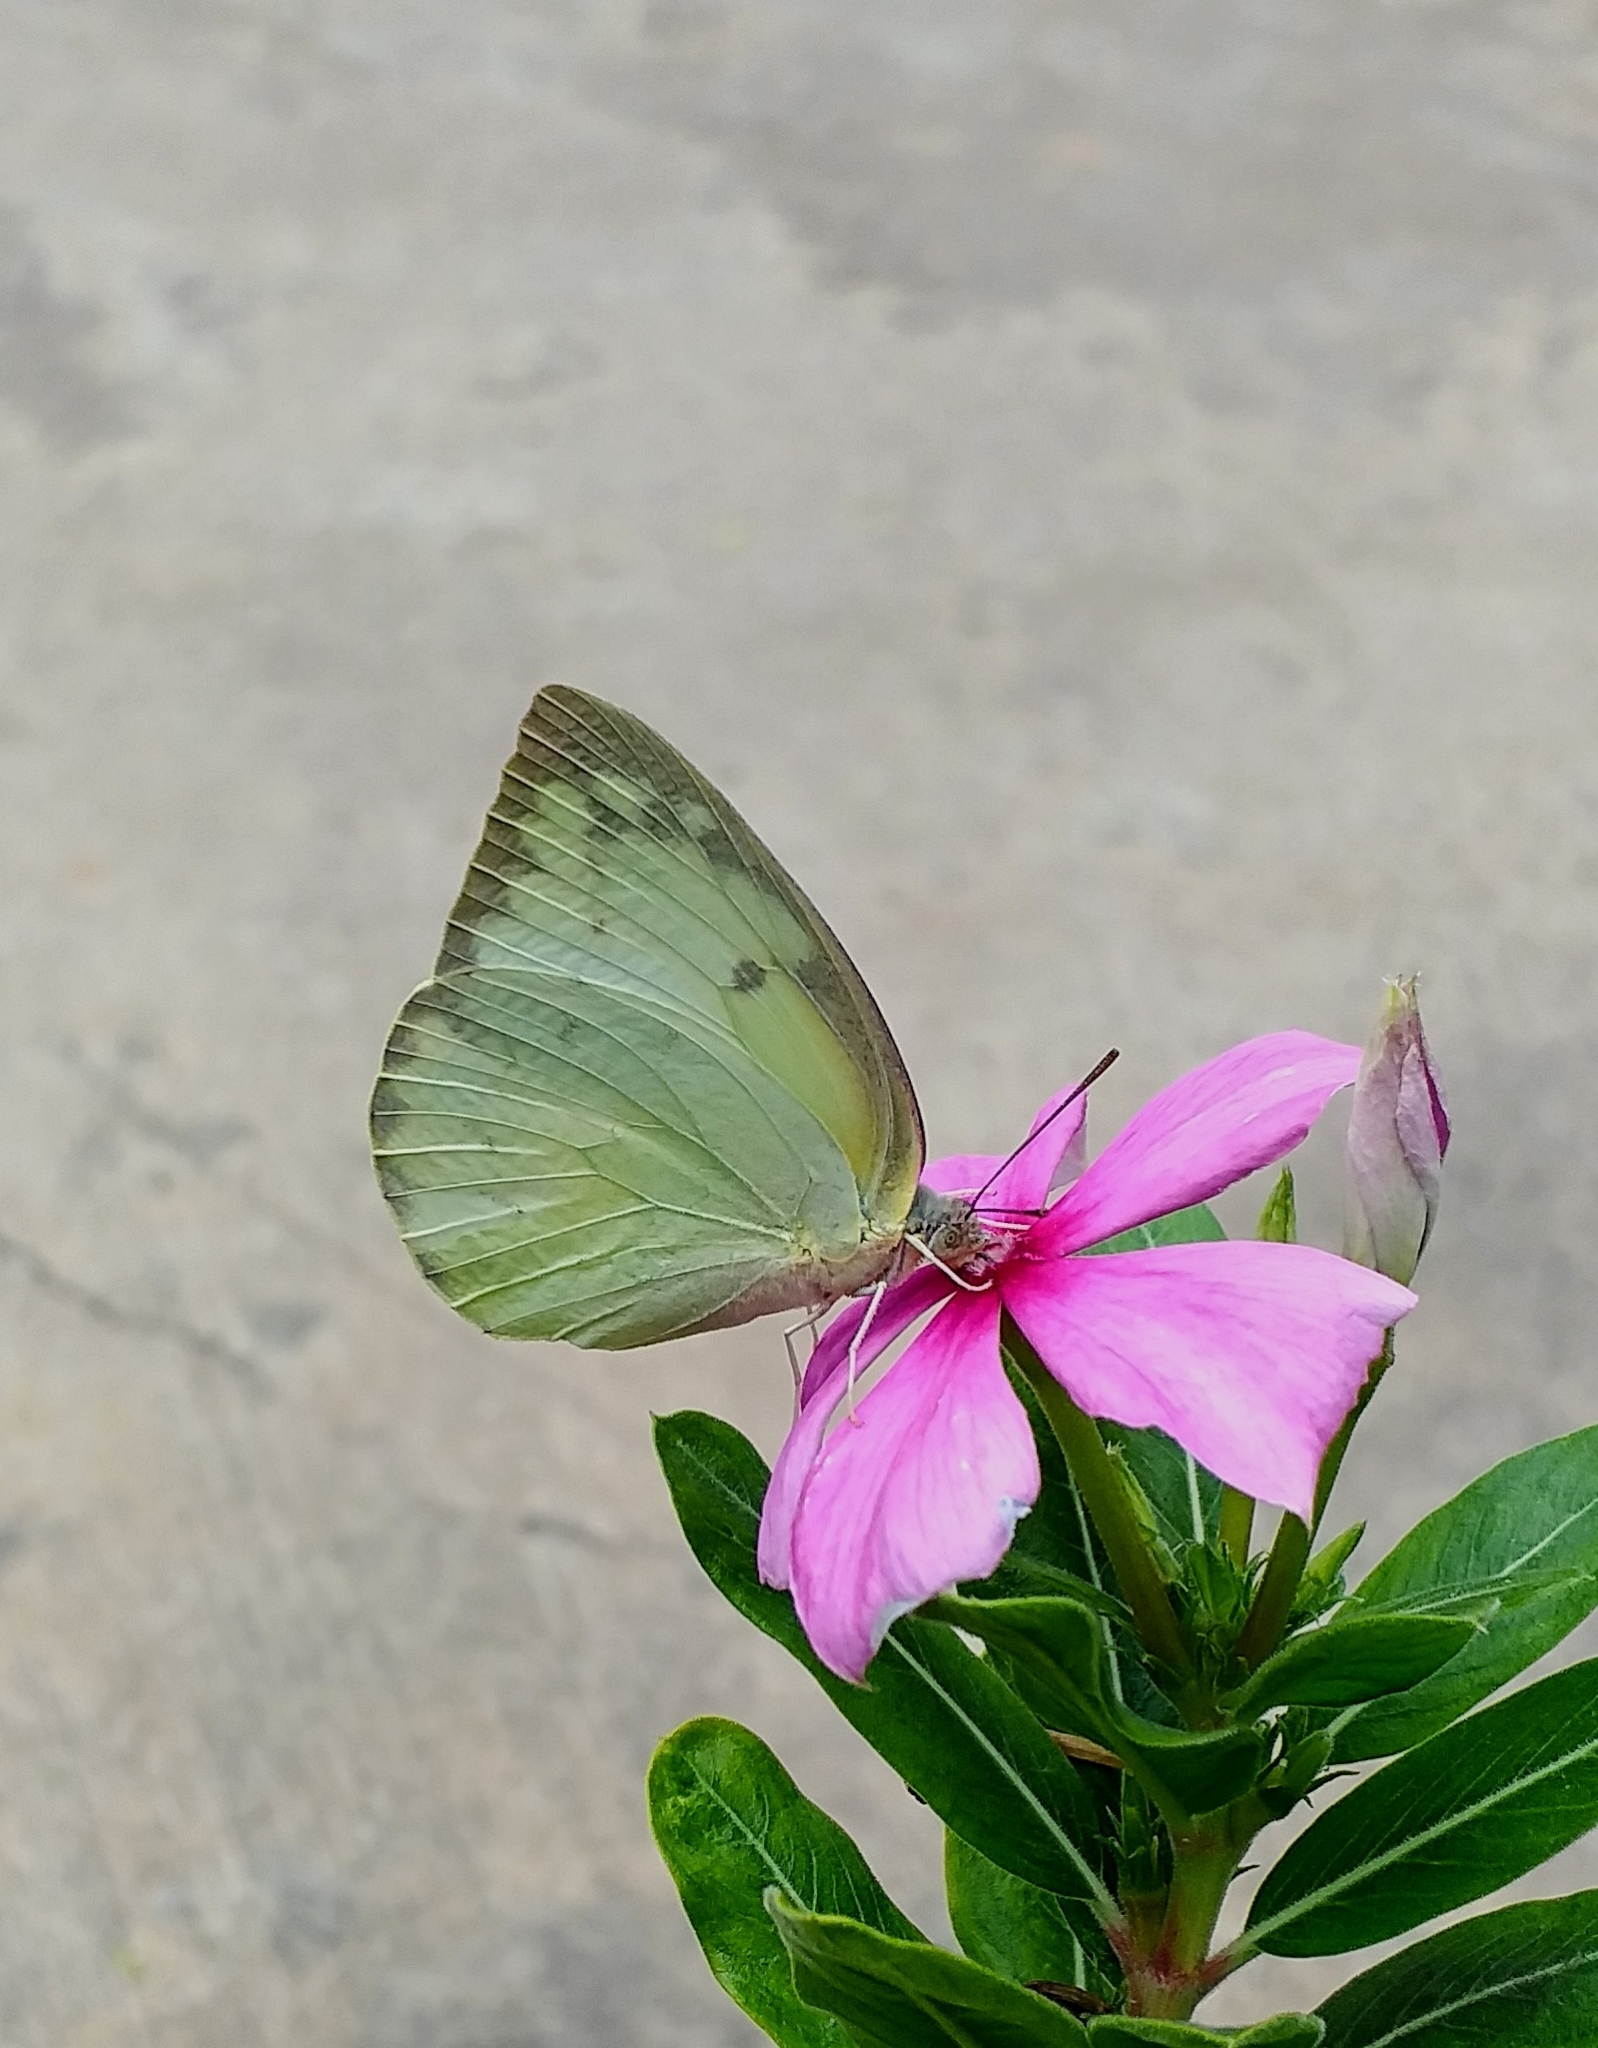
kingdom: Animalia
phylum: Arthropoda
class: Insecta
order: Lepidoptera
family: Pieridae
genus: Catopsilia
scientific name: Catopsilia pomona
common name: Common emigrant
